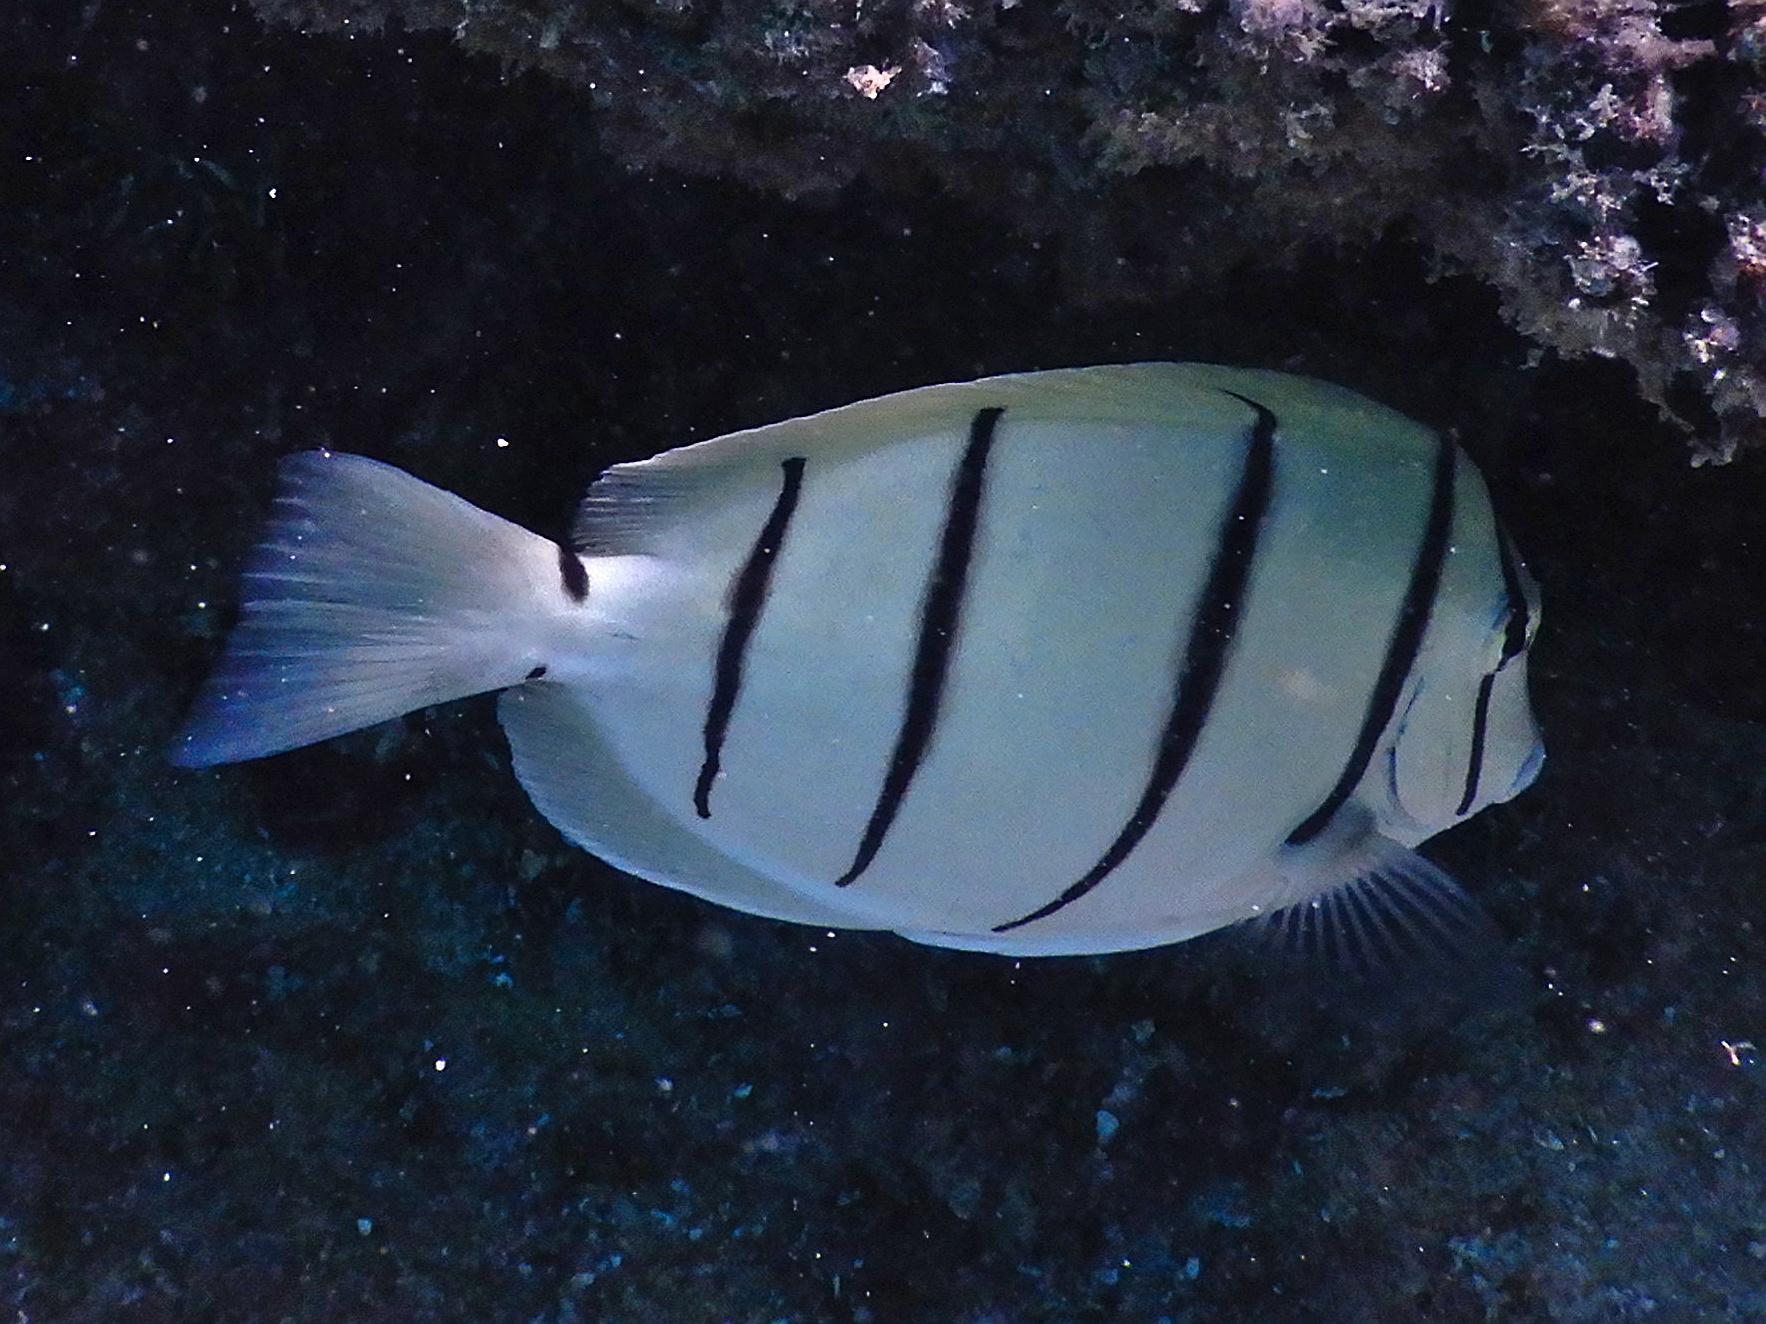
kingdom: Animalia
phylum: Chordata
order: Perciformes
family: Acanthuridae
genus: Acanthurus
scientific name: Acanthurus triostegus
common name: Convict surgeonfish
